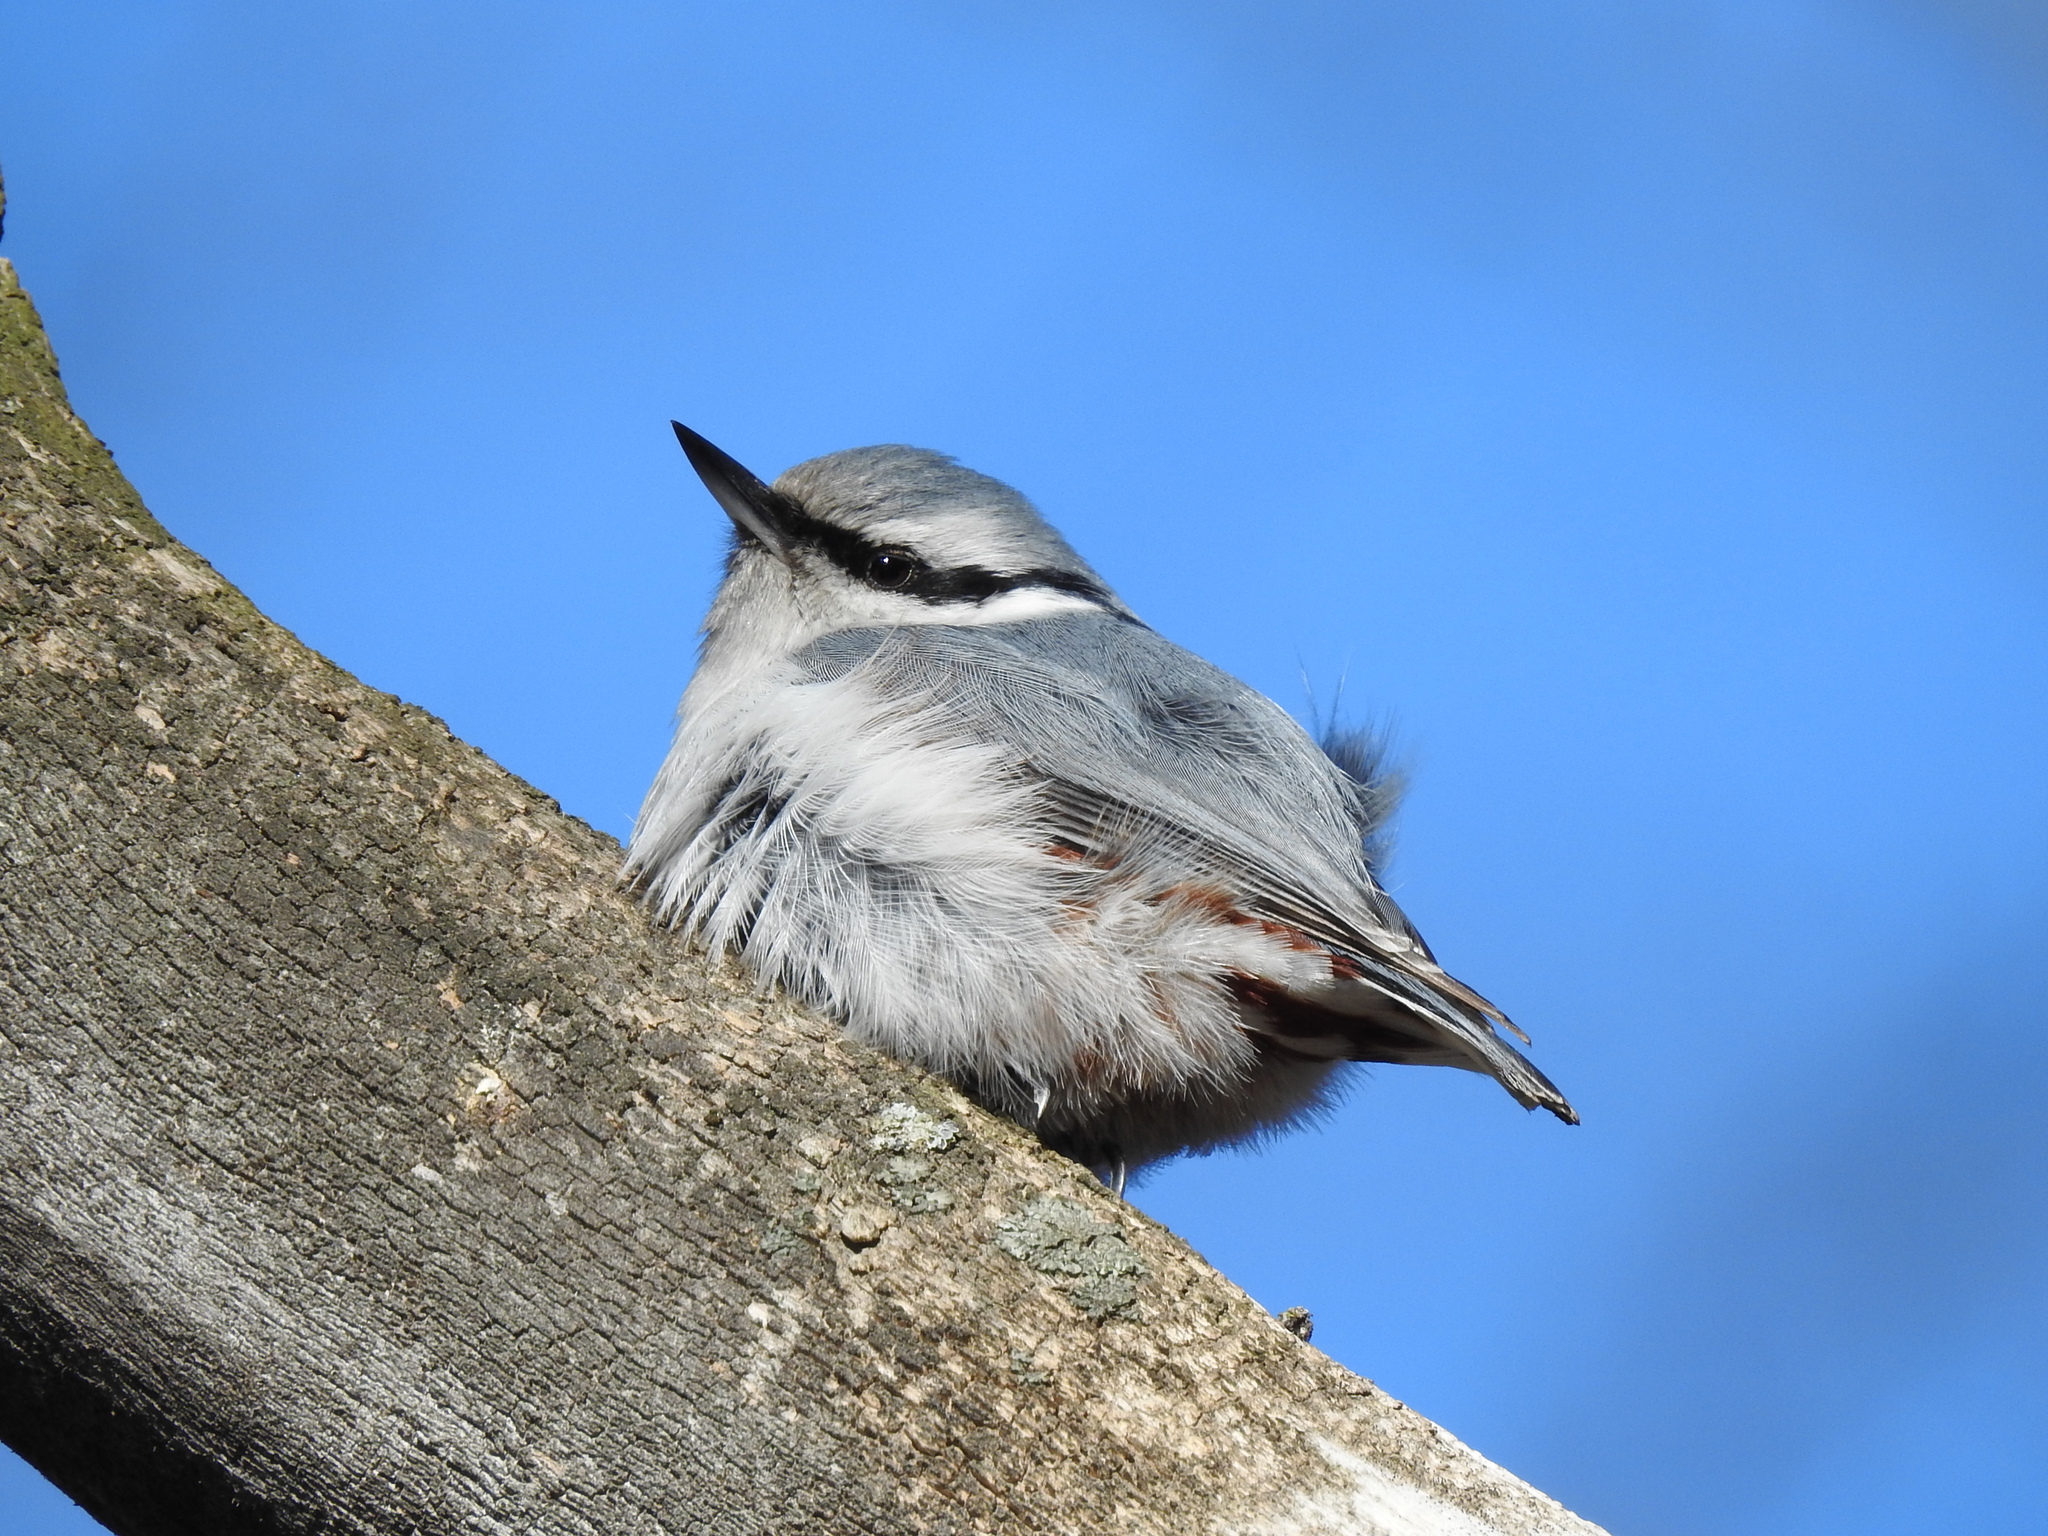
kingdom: Animalia
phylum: Chordata
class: Aves
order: Passeriformes
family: Sittidae
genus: Sitta
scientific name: Sitta europaea
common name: Eurasian nuthatch
